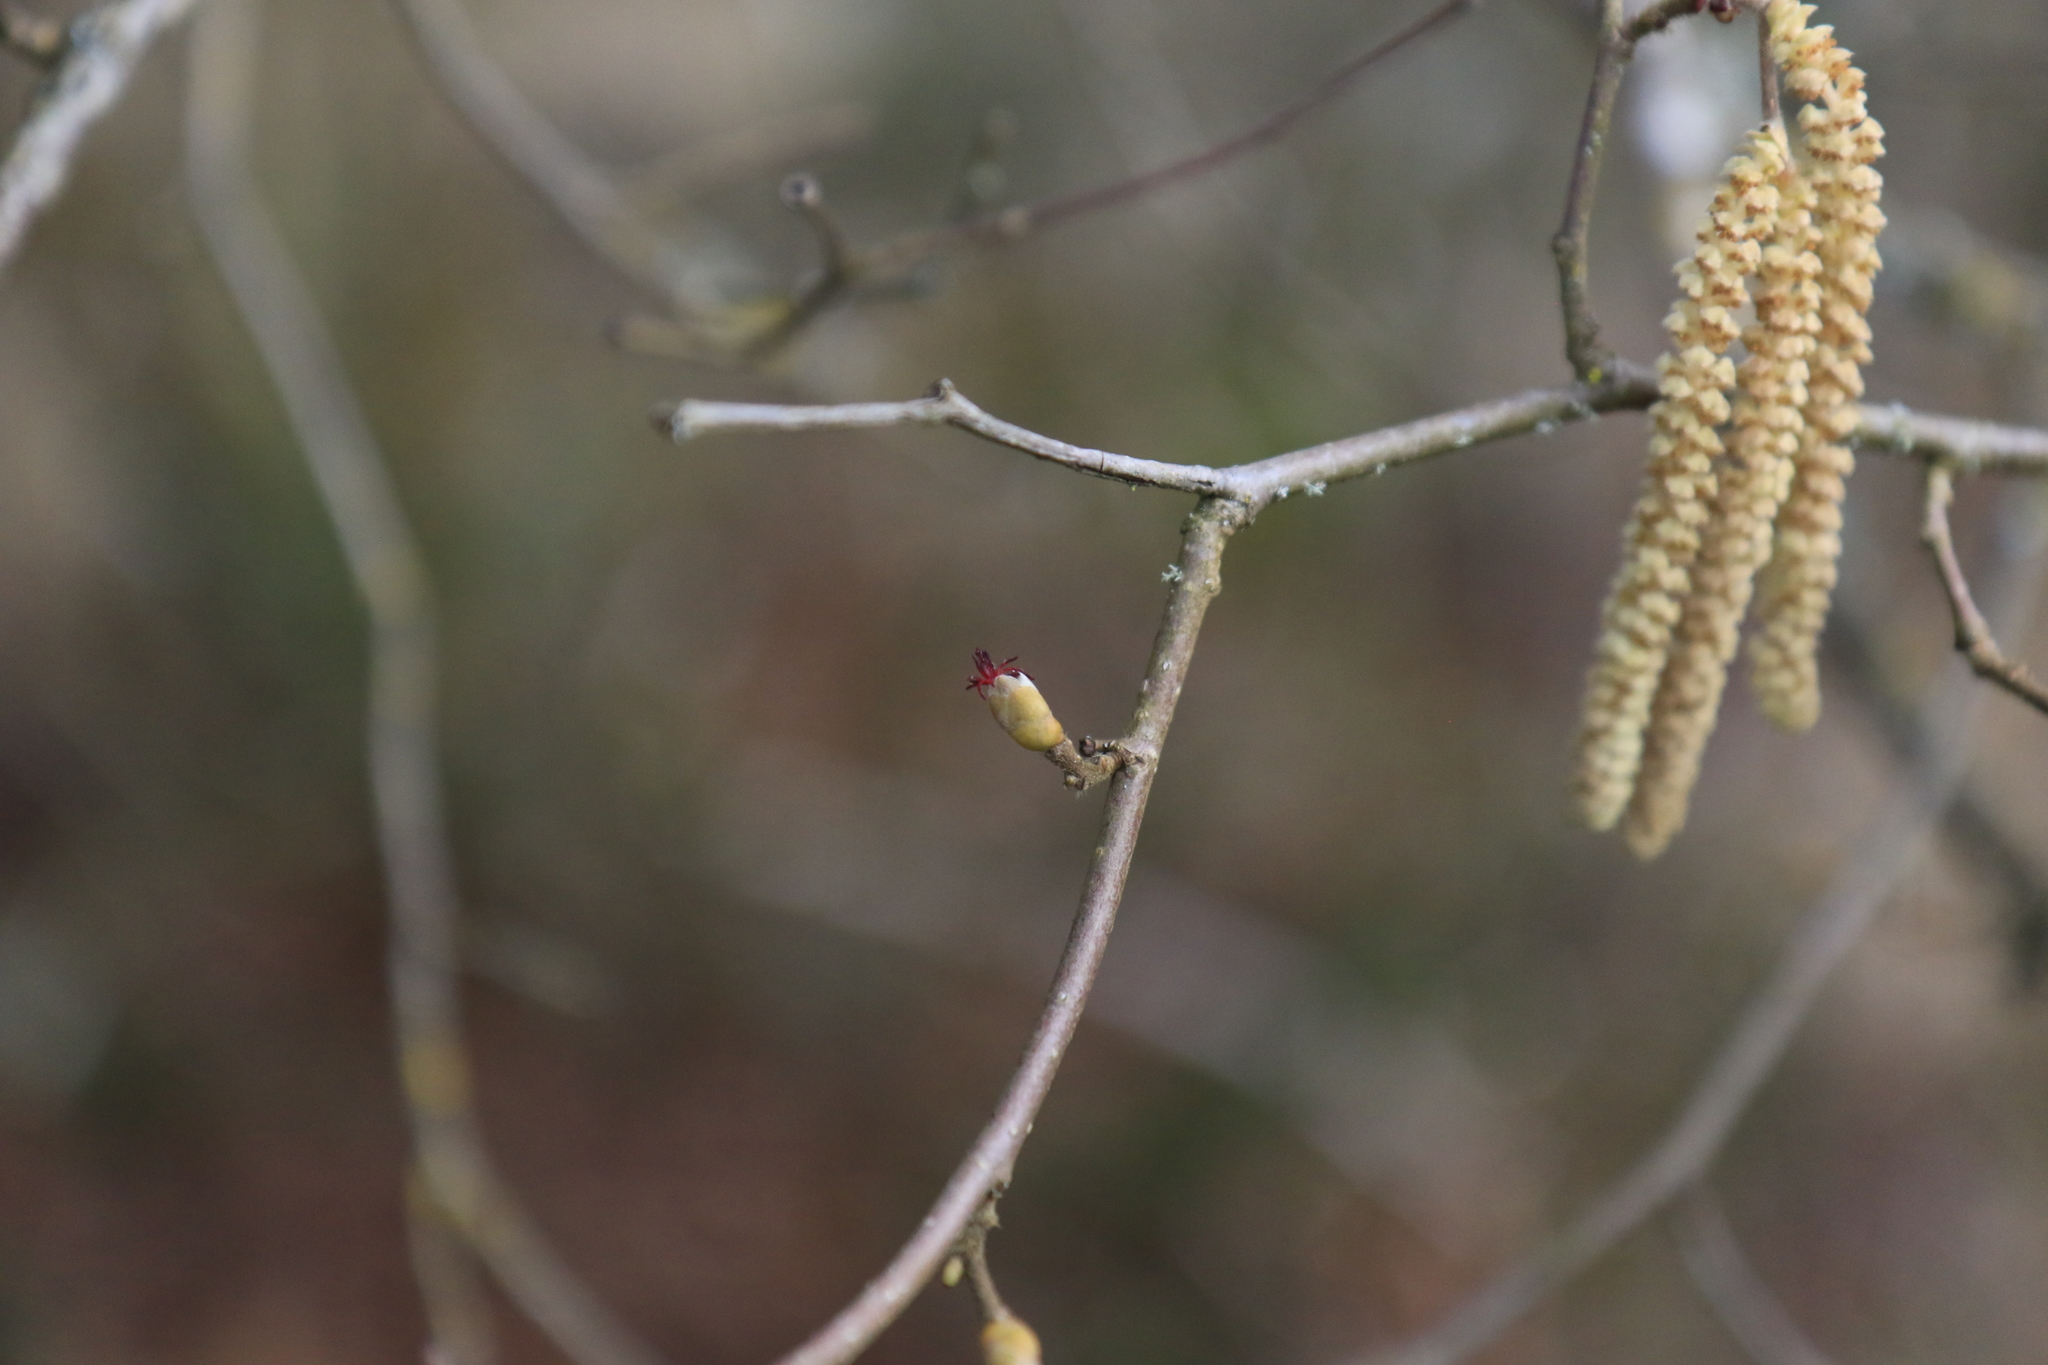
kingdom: Plantae
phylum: Tracheophyta
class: Magnoliopsida
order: Fagales
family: Betulaceae
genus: Corylus
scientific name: Corylus avellana
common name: European hazel
